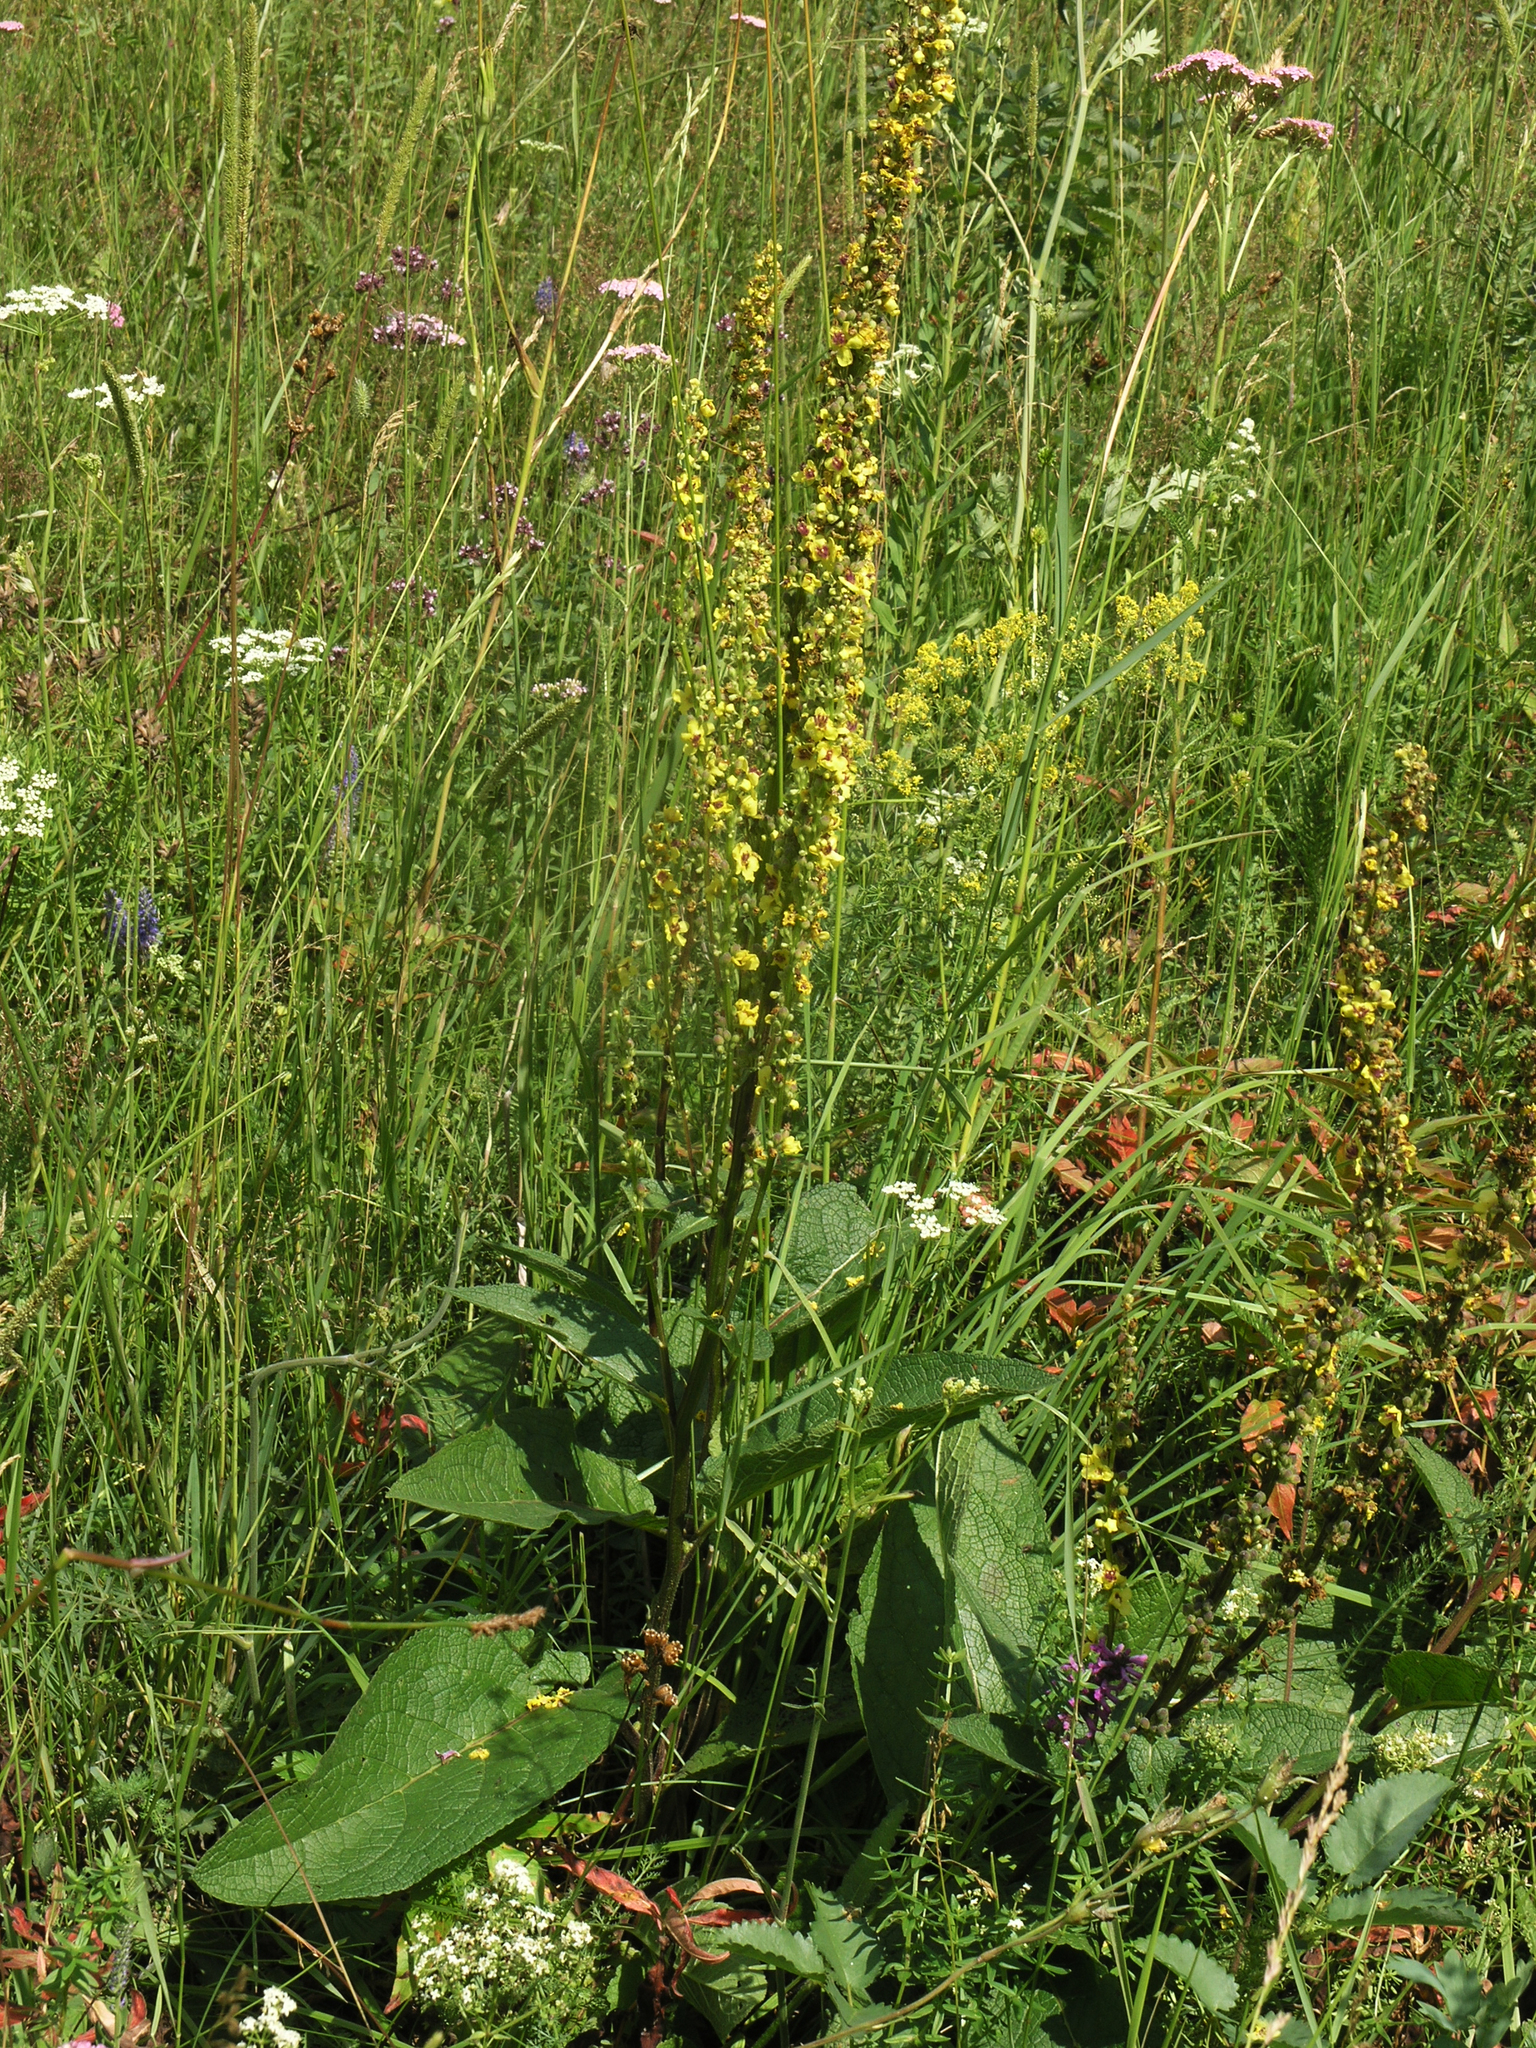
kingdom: Plantae
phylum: Tracheophyta
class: Magnoliopsida
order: Lamiales
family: Scrophulariaceae
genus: Verbascum
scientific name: Verbascum nigrum
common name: Dark mullein
